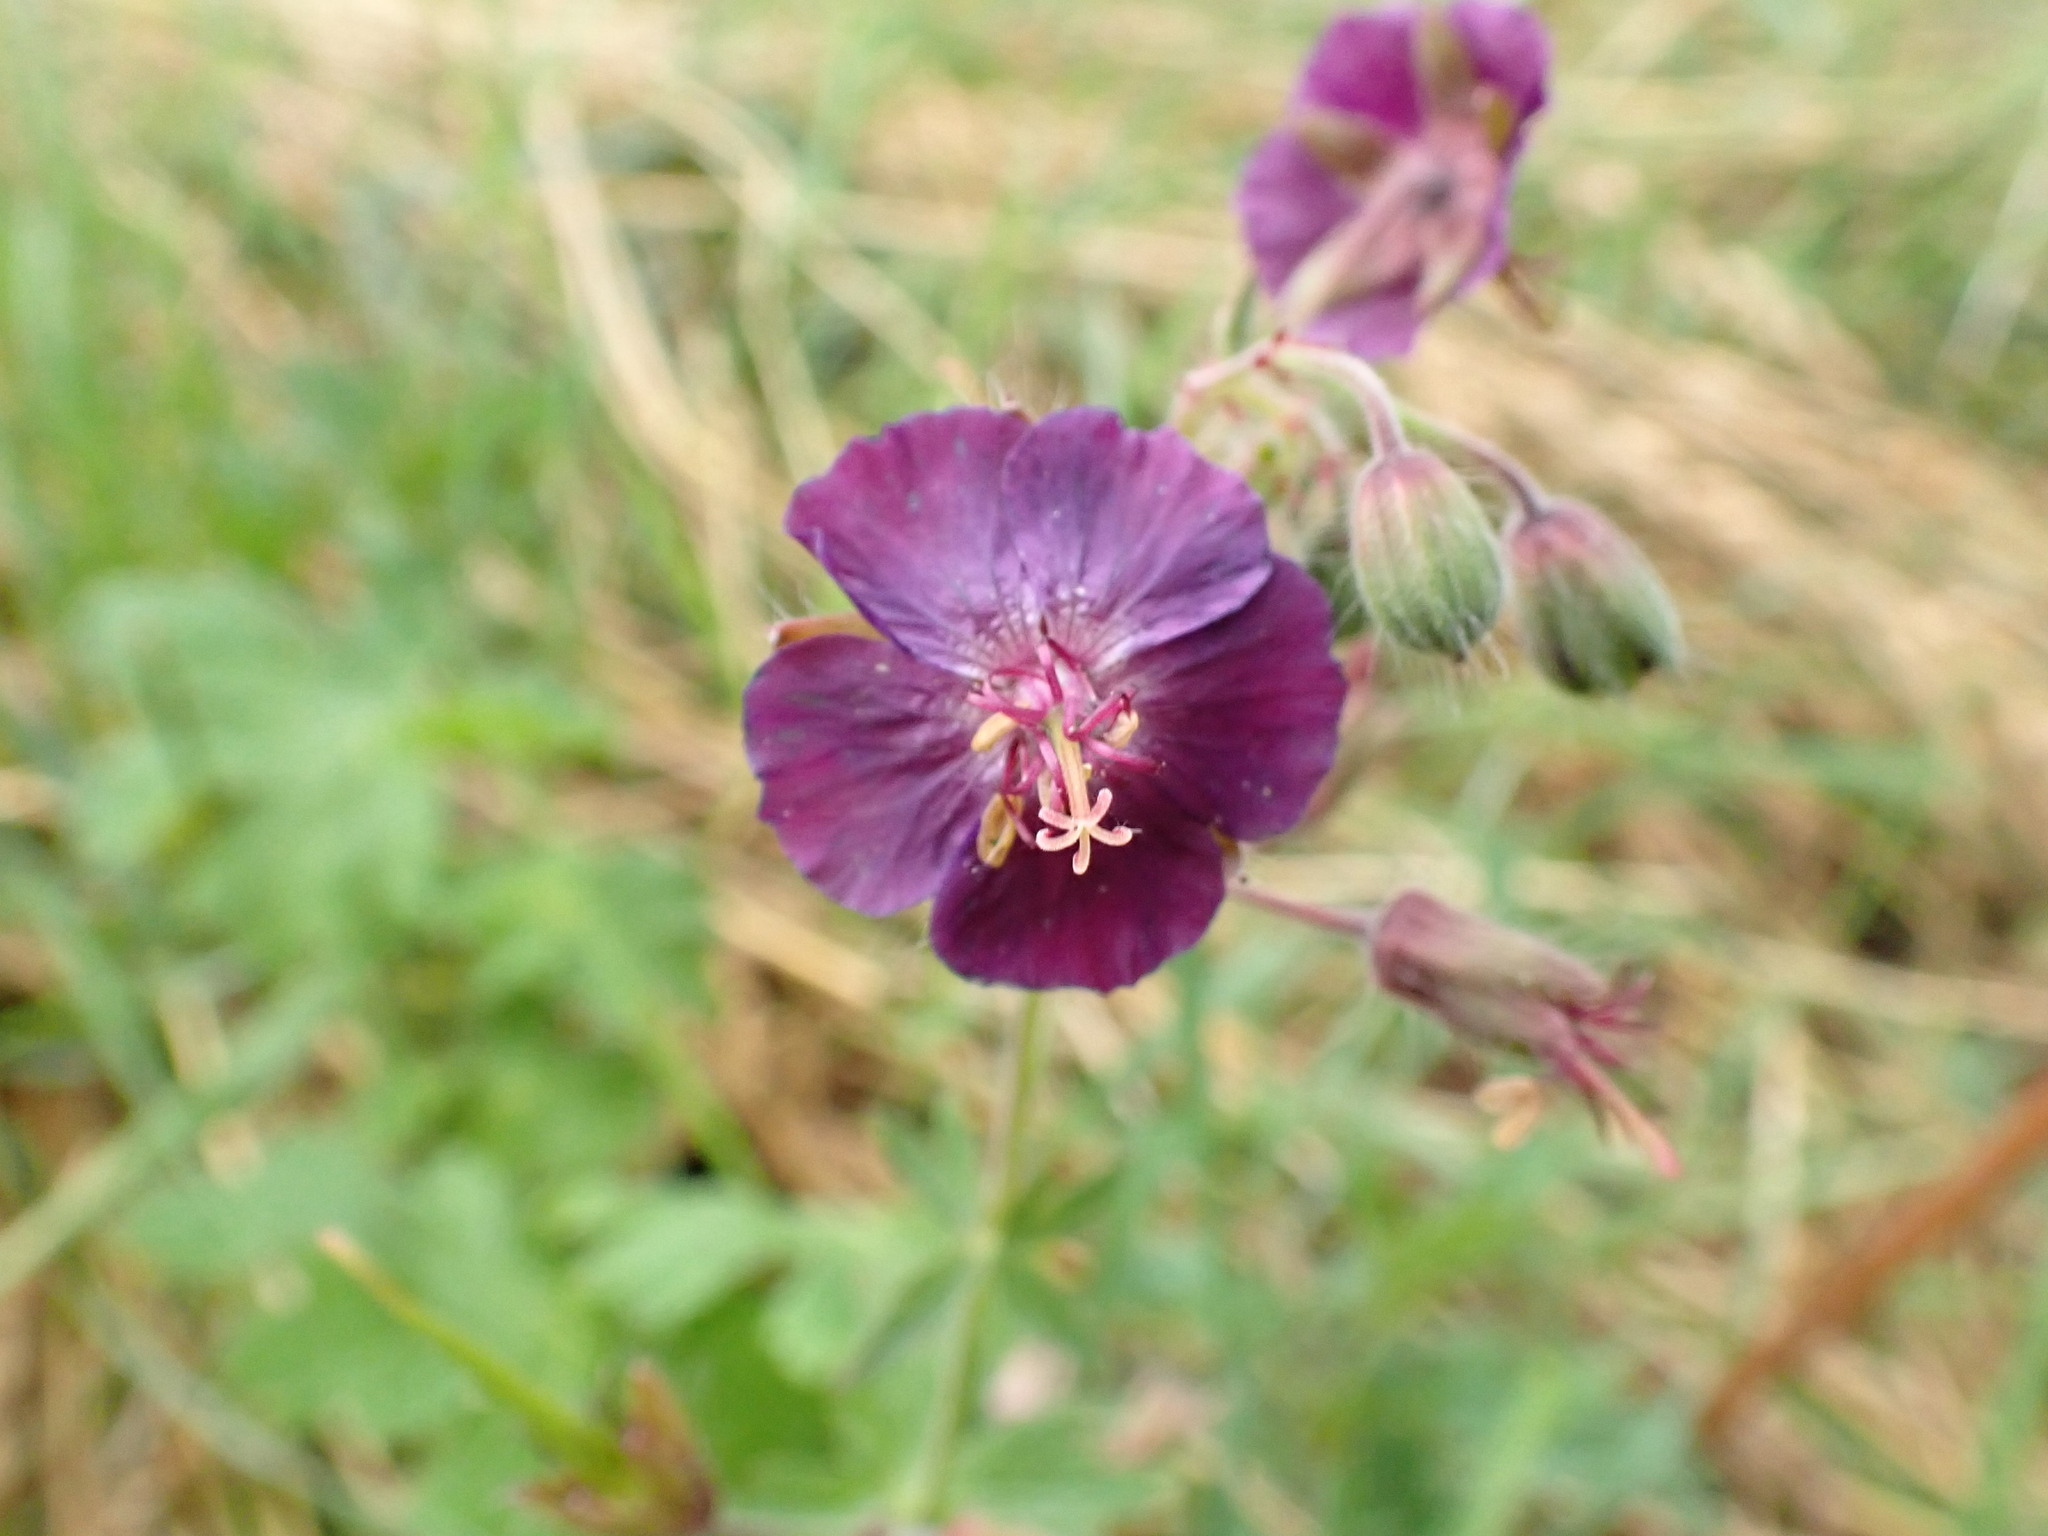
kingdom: Plantae
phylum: Tracheophyta
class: Magnoliopsida
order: Geraniales
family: Geraniaceae
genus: Geranium
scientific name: Geranium phaeum
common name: Dusky crane's-bill
